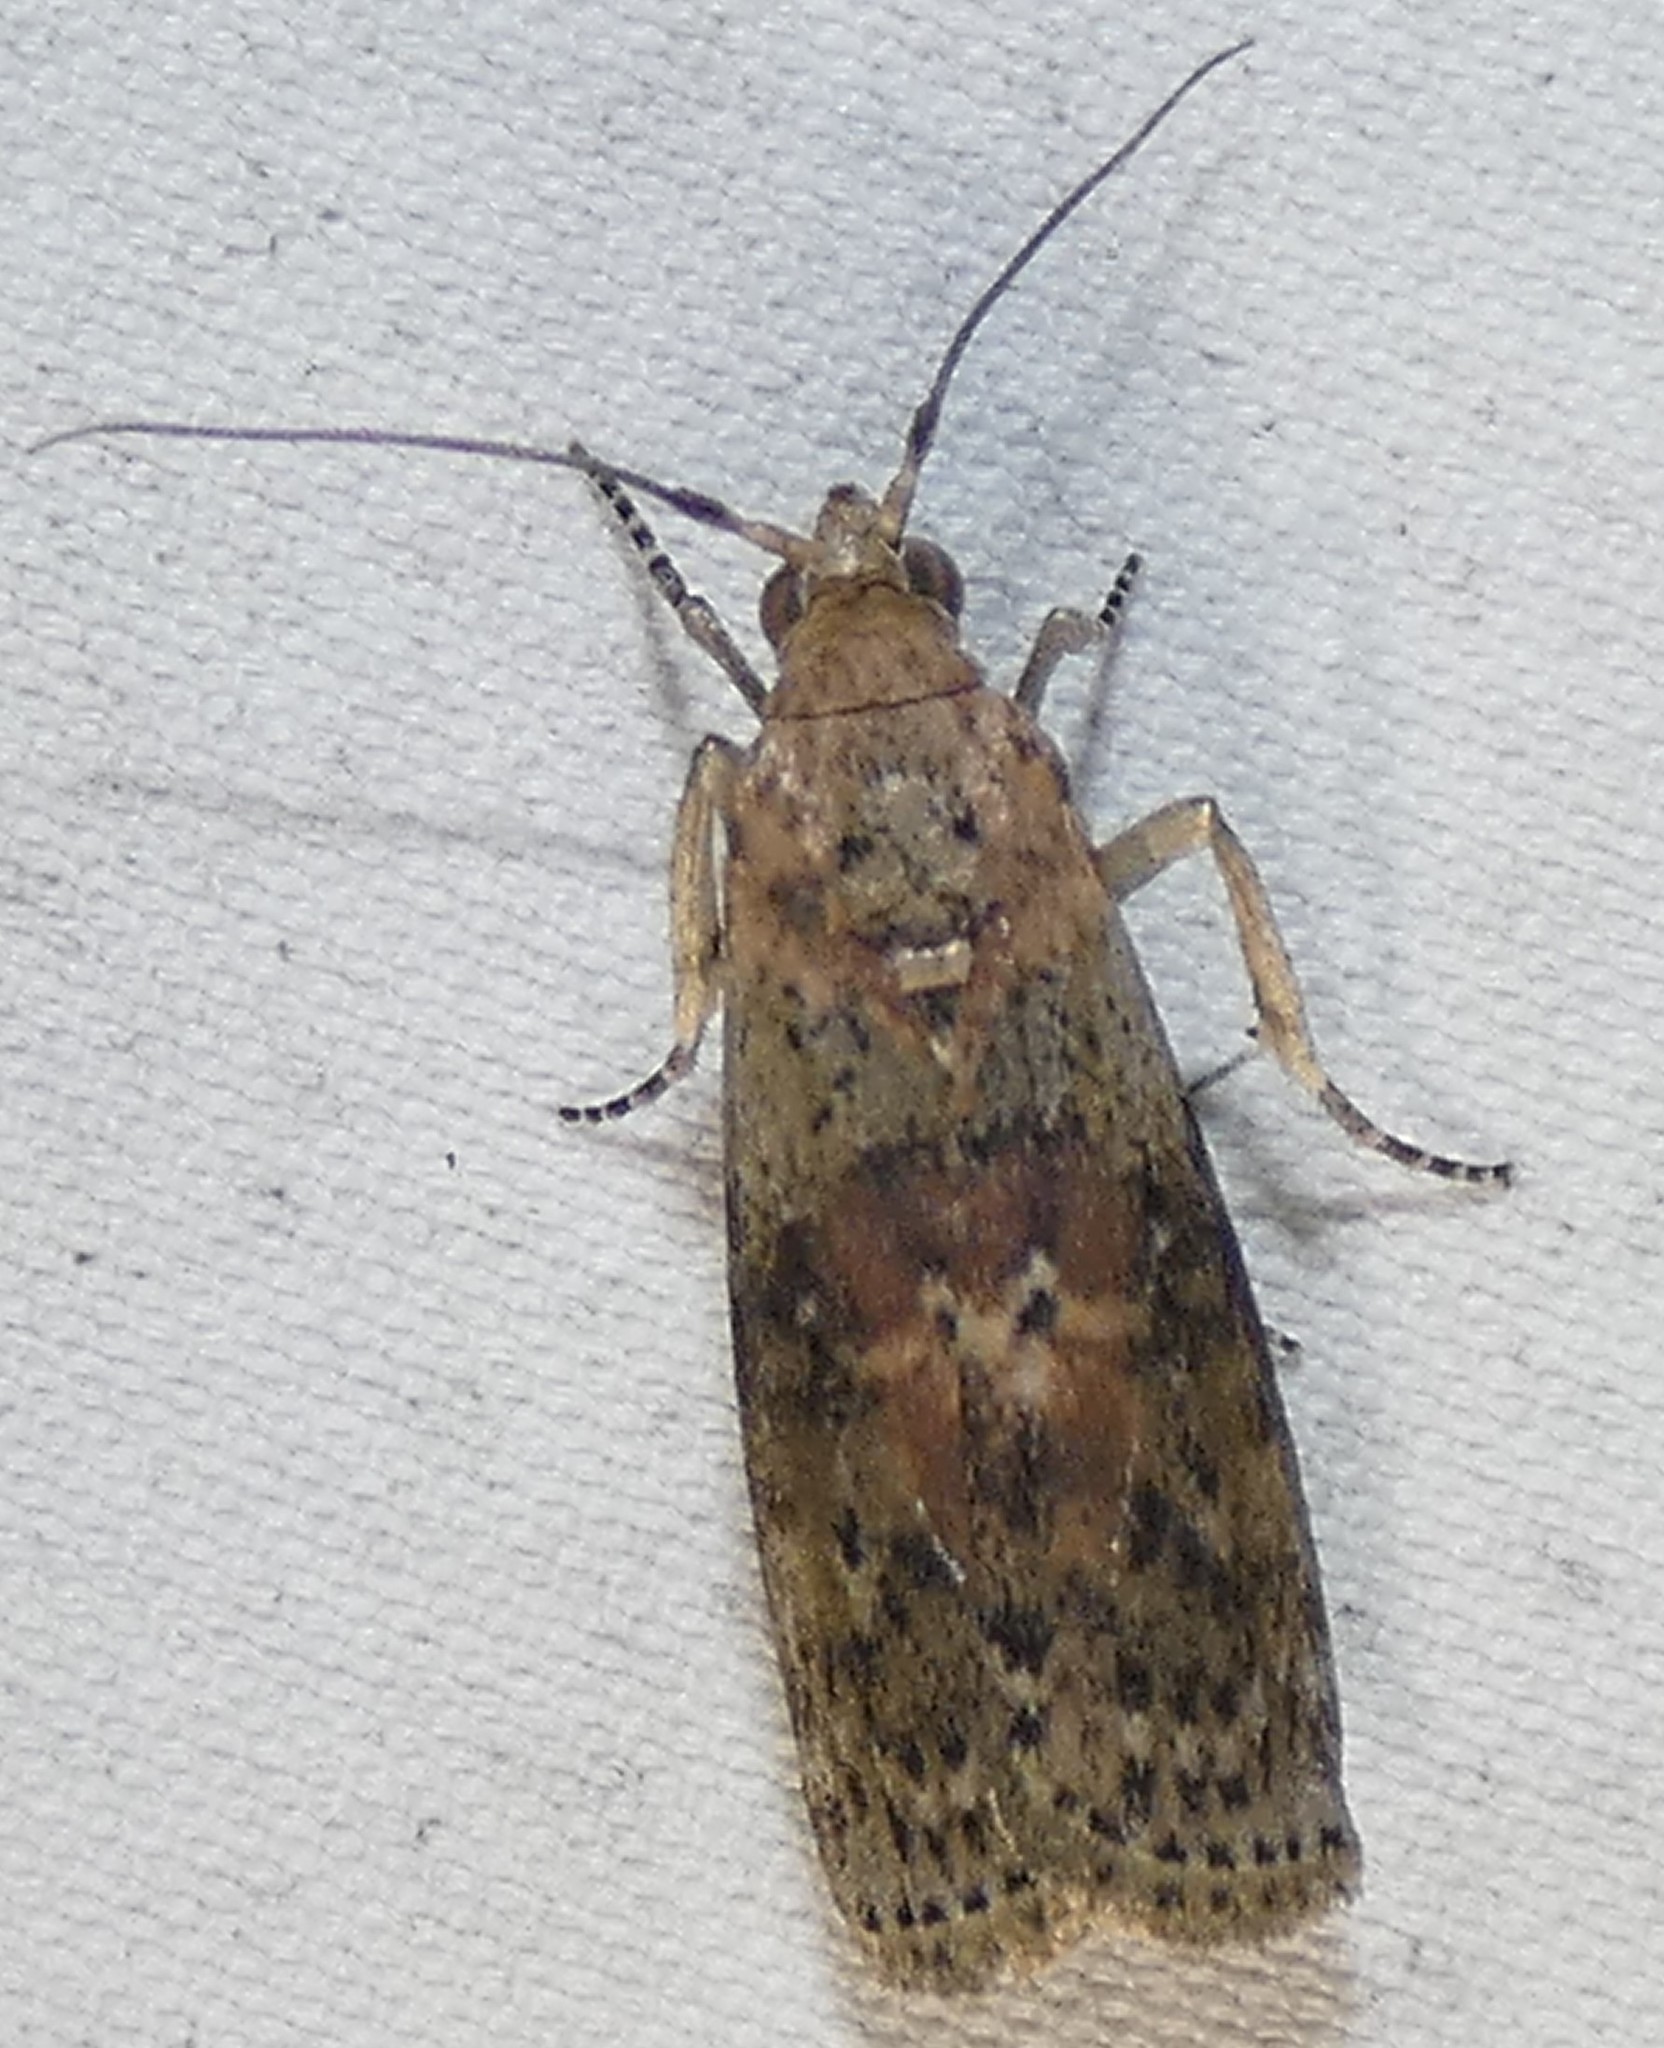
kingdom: Animalia
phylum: Arthropoda
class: Insecta
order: Lepidoptera
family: Pyralidae
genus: Sciota
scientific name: Sciota celtidella
